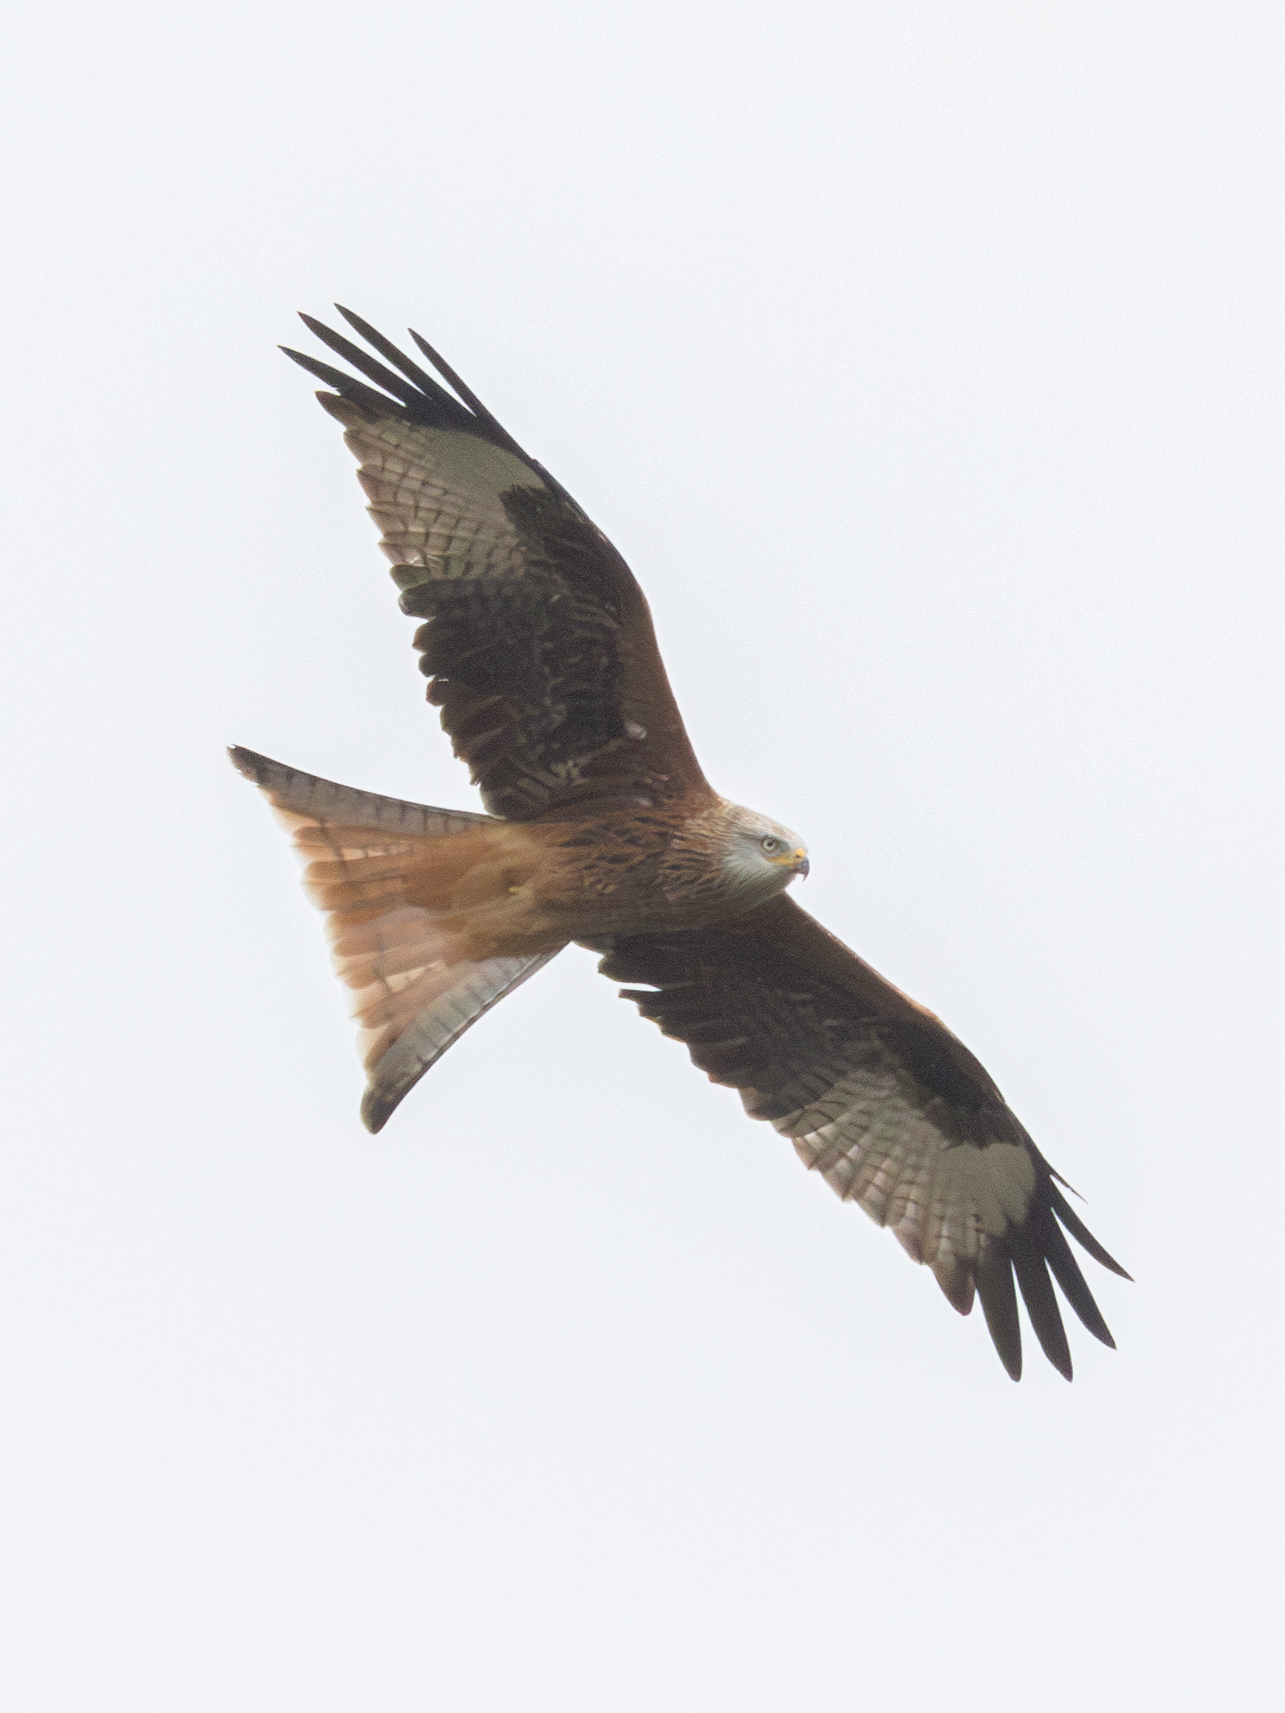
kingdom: Animalia
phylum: Chordata
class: Aves
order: Accipitriformes
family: Accipitridae
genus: Milvus
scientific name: Milvus milvus
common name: Red kite
